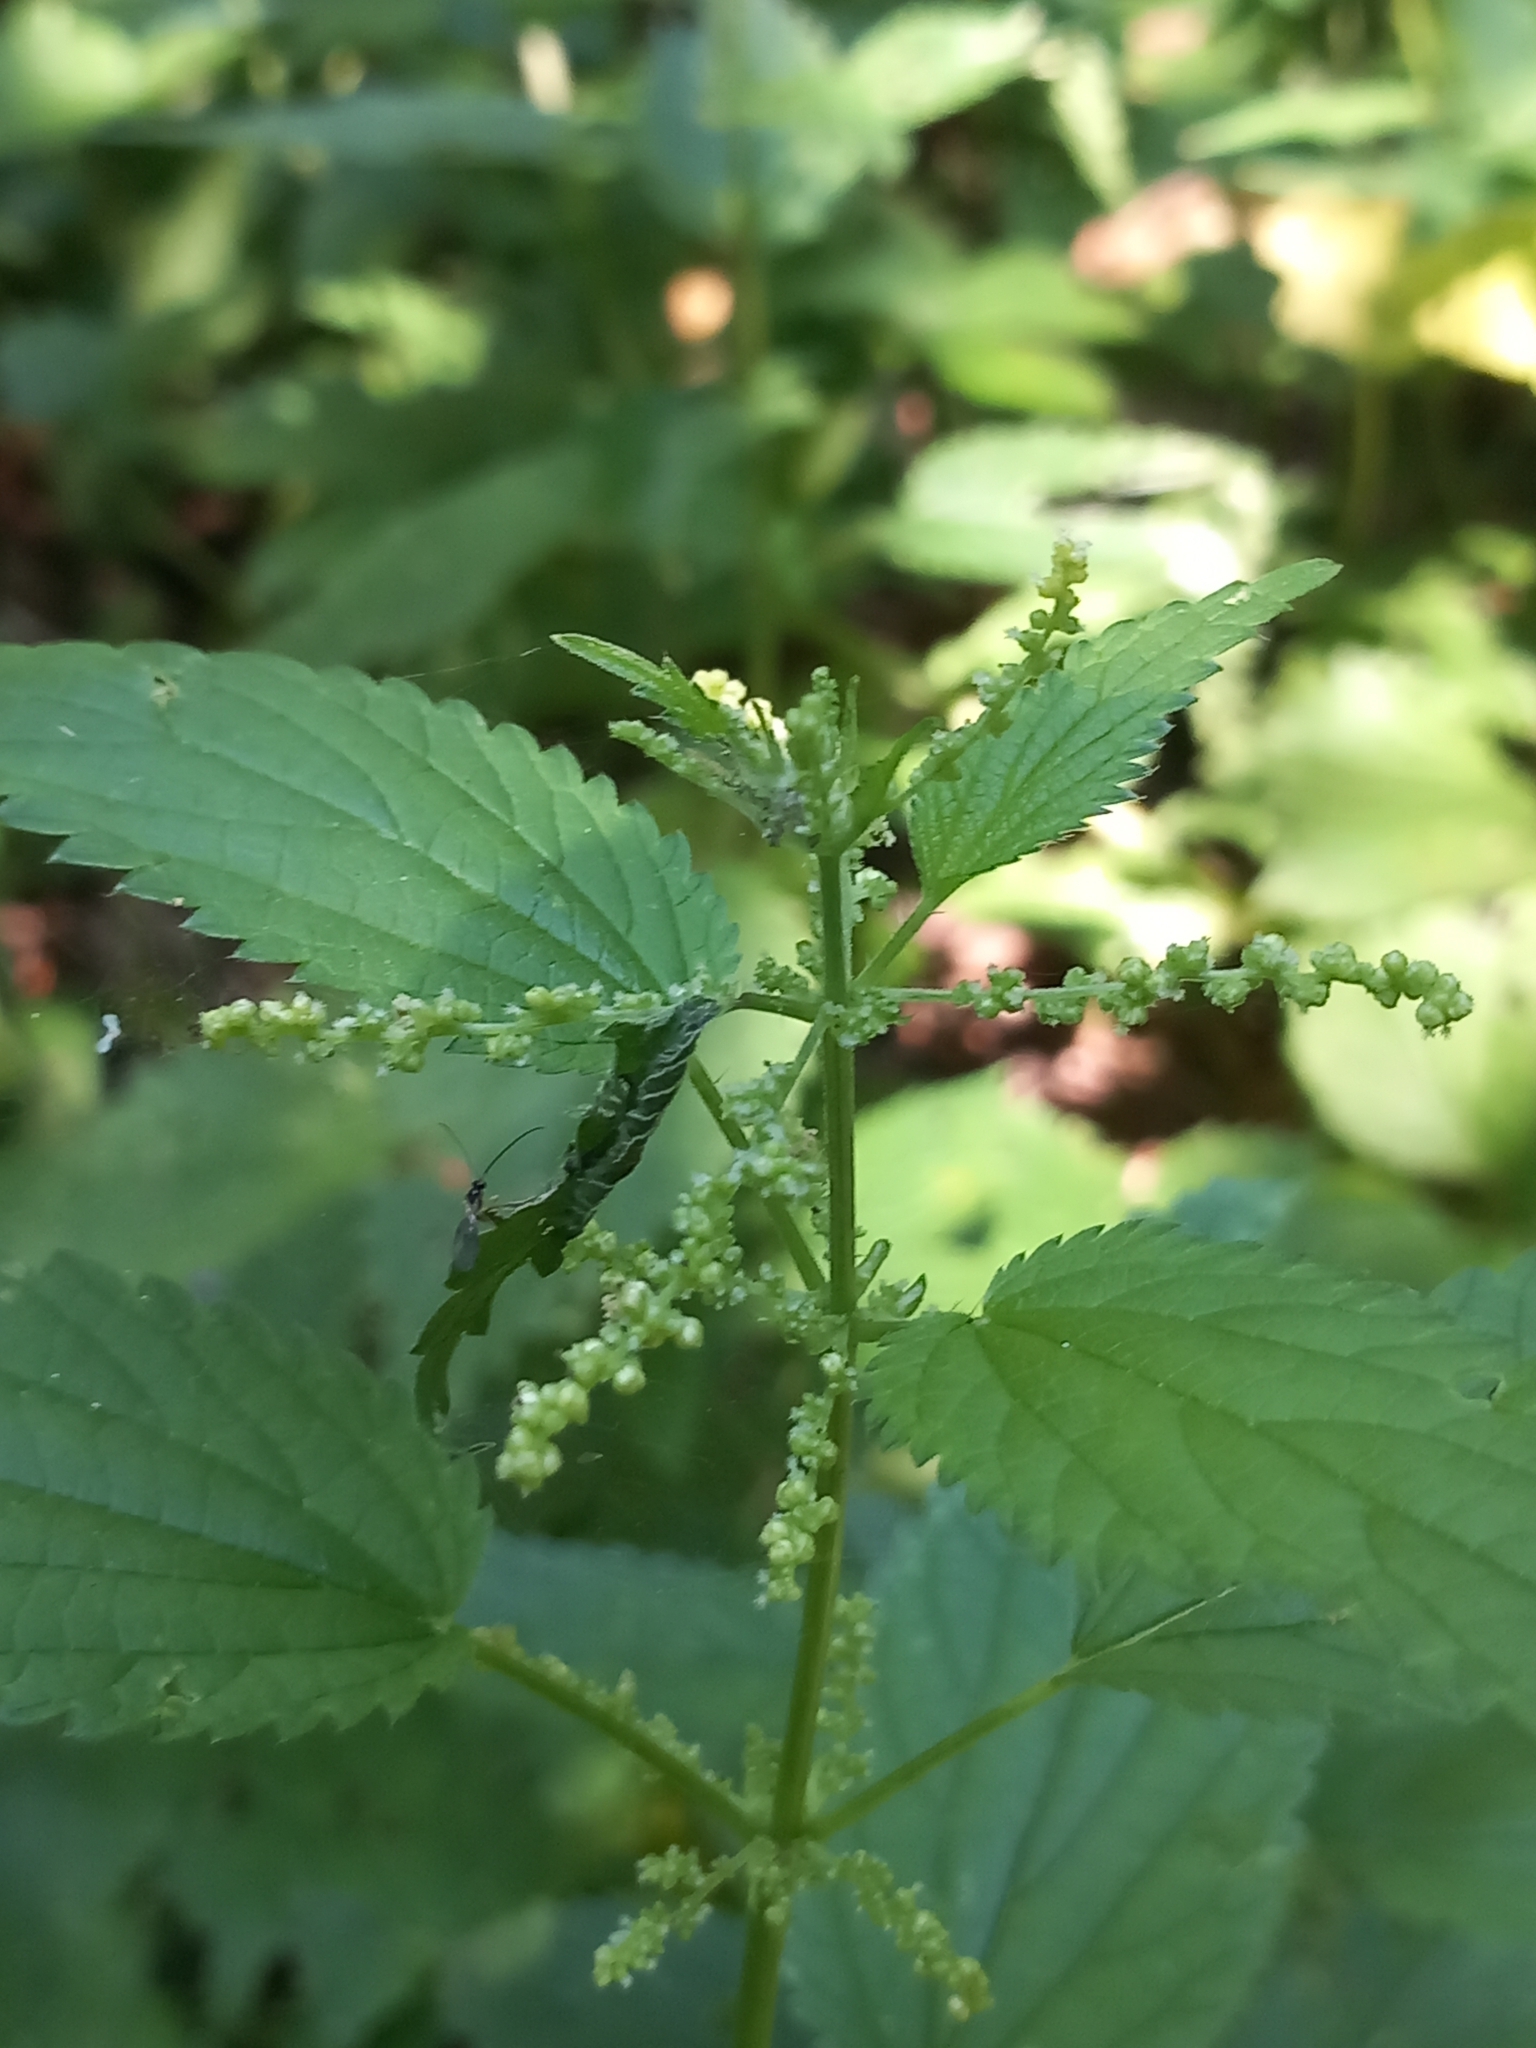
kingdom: Plantae
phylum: Tracheophyta
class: Magnoliopsida
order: Rosales
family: Urticaceae
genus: Urtica
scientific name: Urtica dioica
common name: Common nettle
